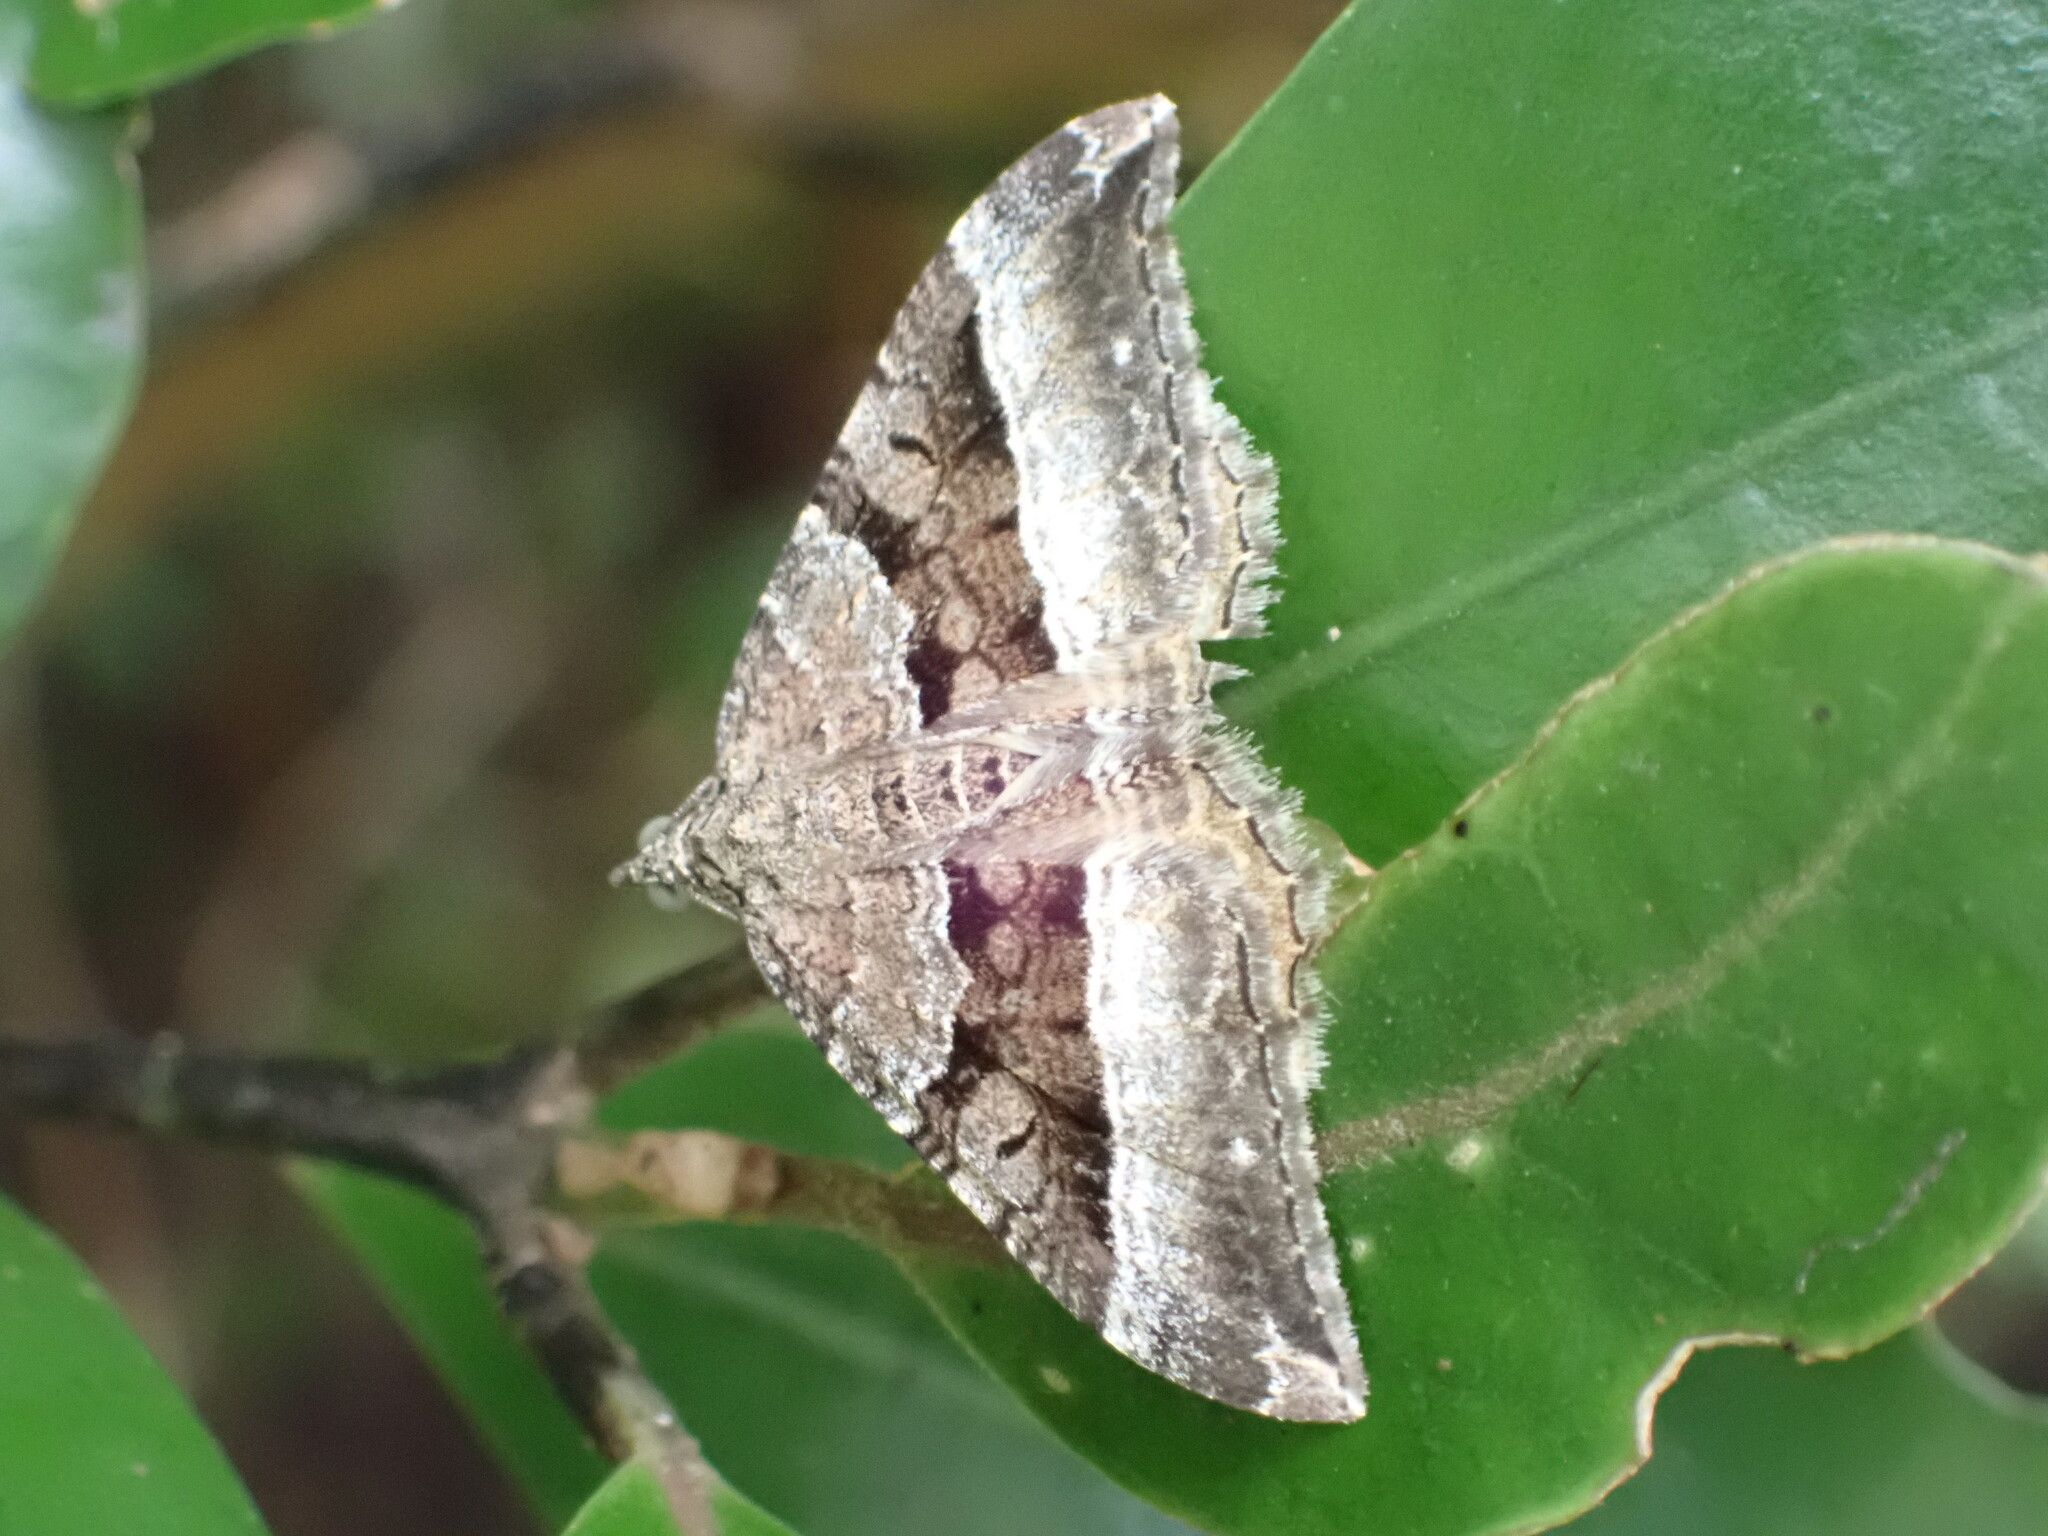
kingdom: Animalia
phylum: Arthropoda
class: Insecta
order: Lepidoptera
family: Geometridae
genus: Hydriomena
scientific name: Hydriomena deltoidata
